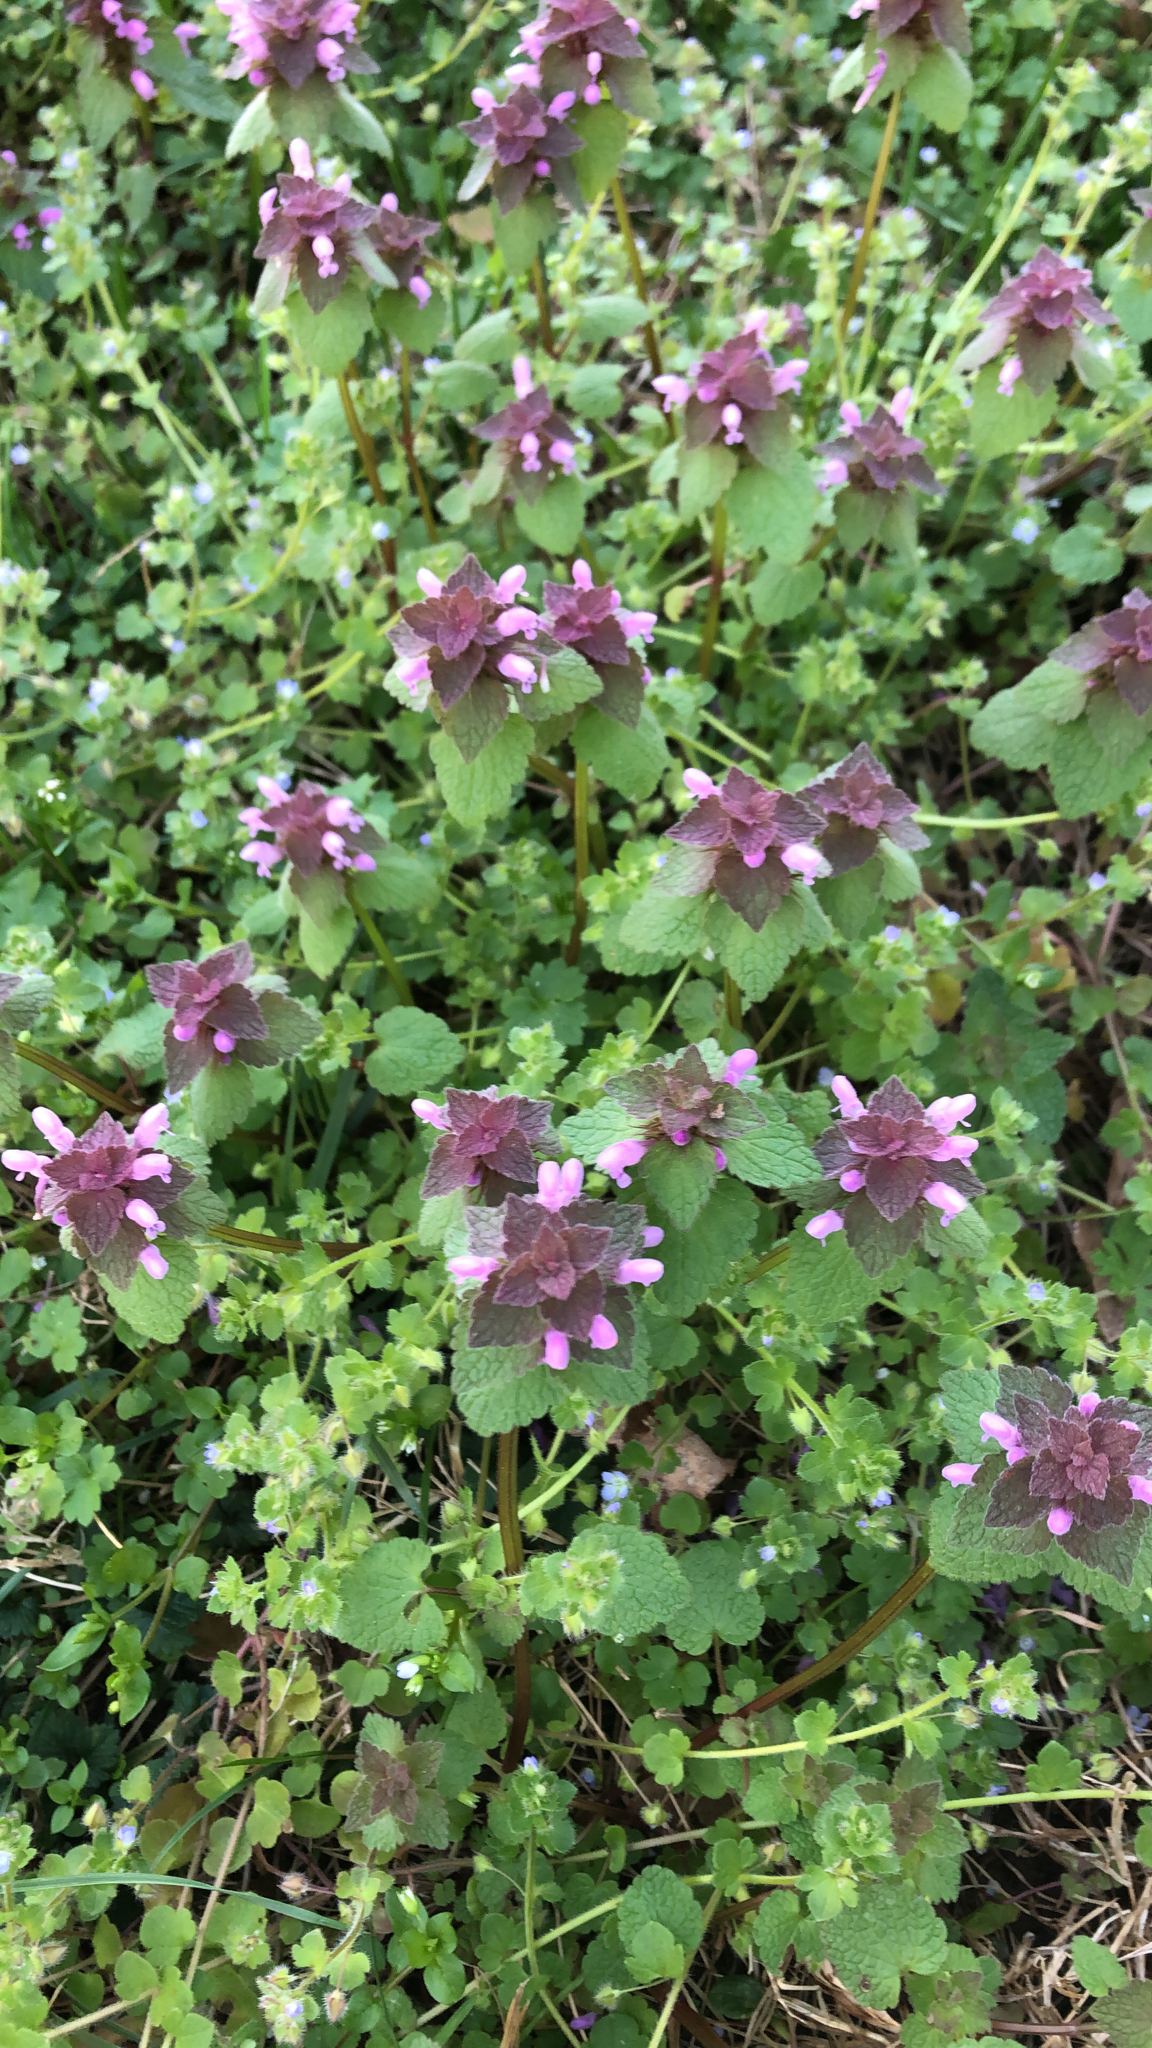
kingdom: Plantae
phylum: Tracheophyta
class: Magnoliopsida
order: Lamiales
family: Lamiaceae
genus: Lamium
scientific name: Lamium purpureum
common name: Red dead-nettle
